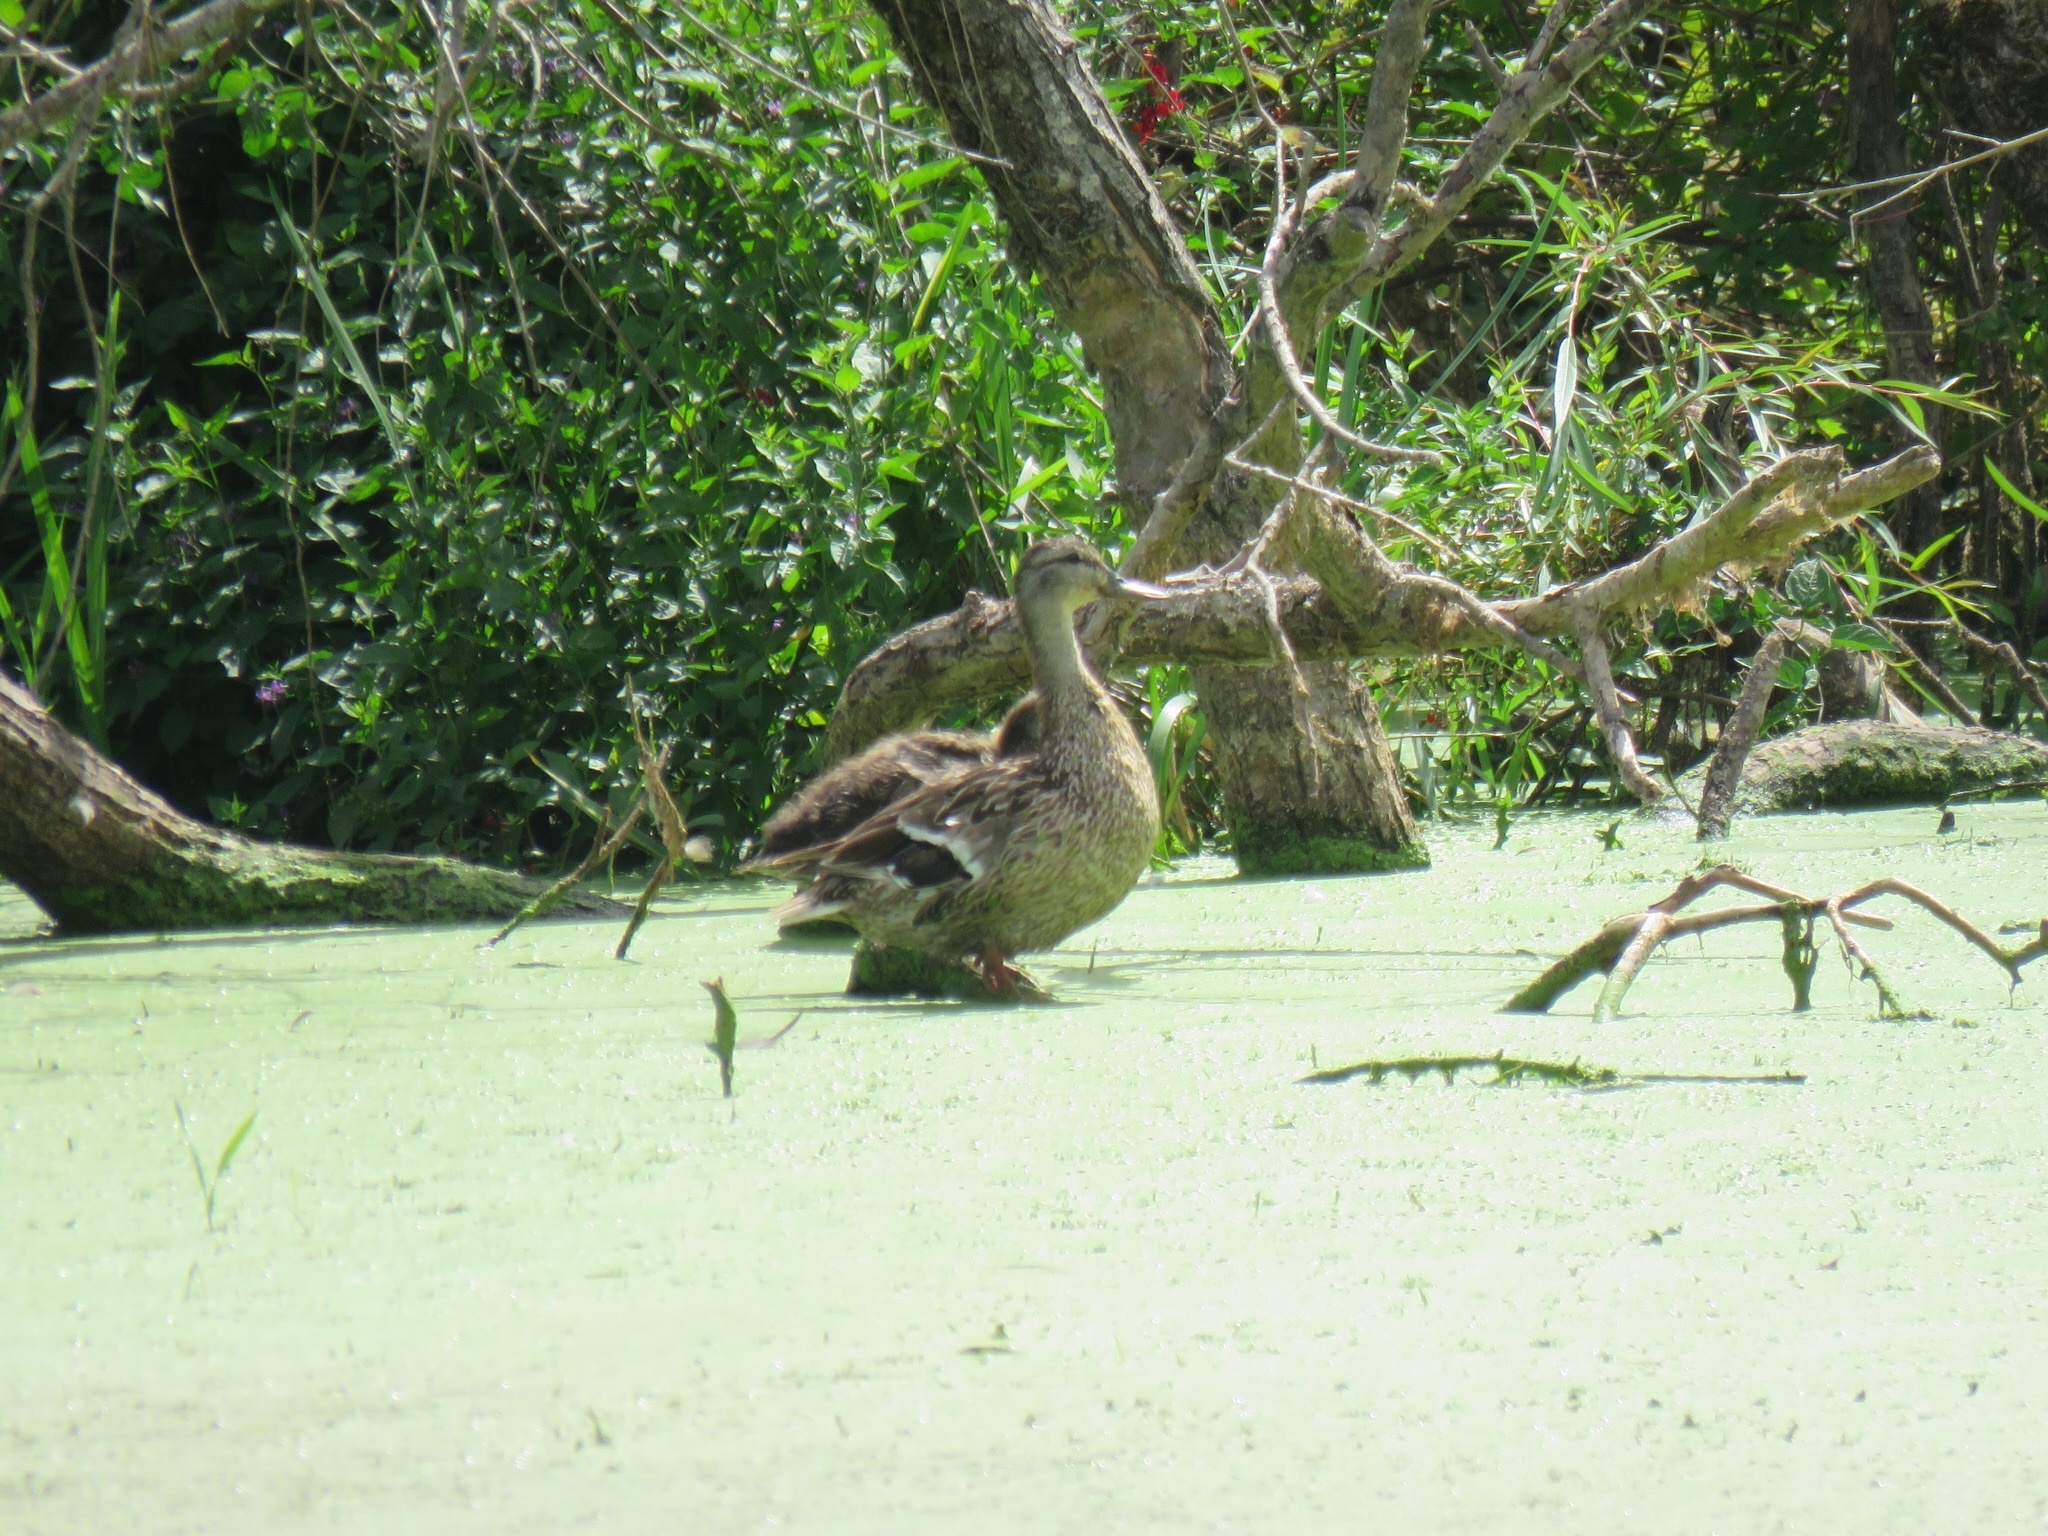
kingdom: Animalia
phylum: Chordata
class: Aves
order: Anseriformes
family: Anatidae
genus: Anas
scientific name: Anas platyrhynchos
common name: Mallard
